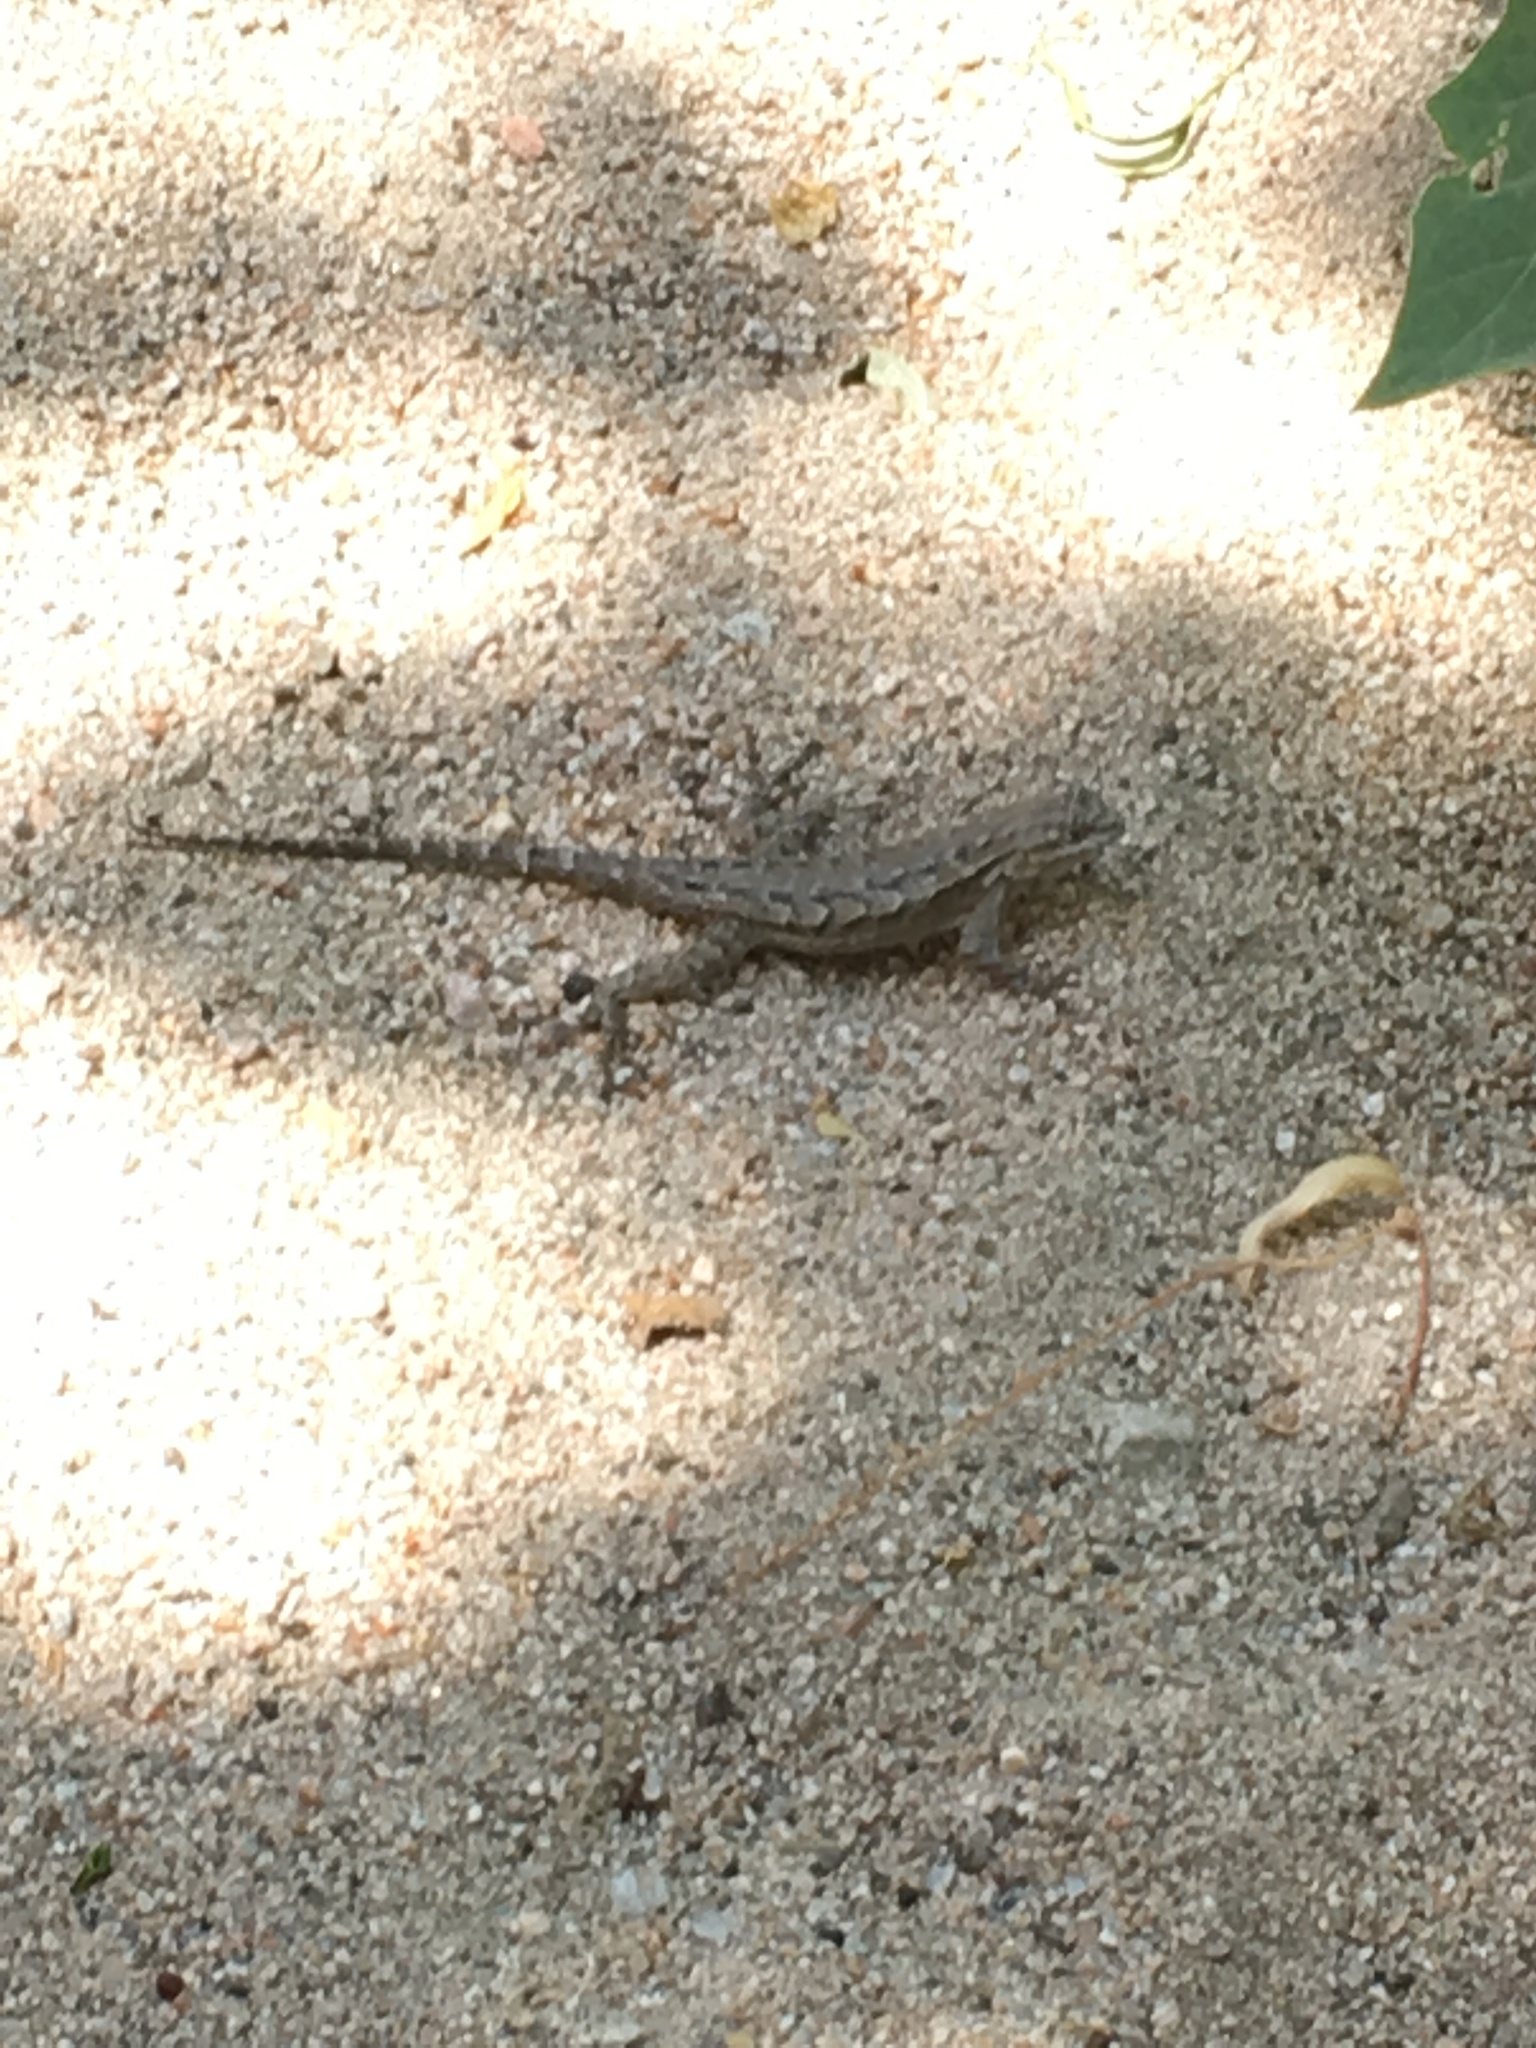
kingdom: Animalia
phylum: Chordata
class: Squamata
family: Phrynosomatidae
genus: Sceloporus
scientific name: Sceloporus occidentalis
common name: Western fence lizard
